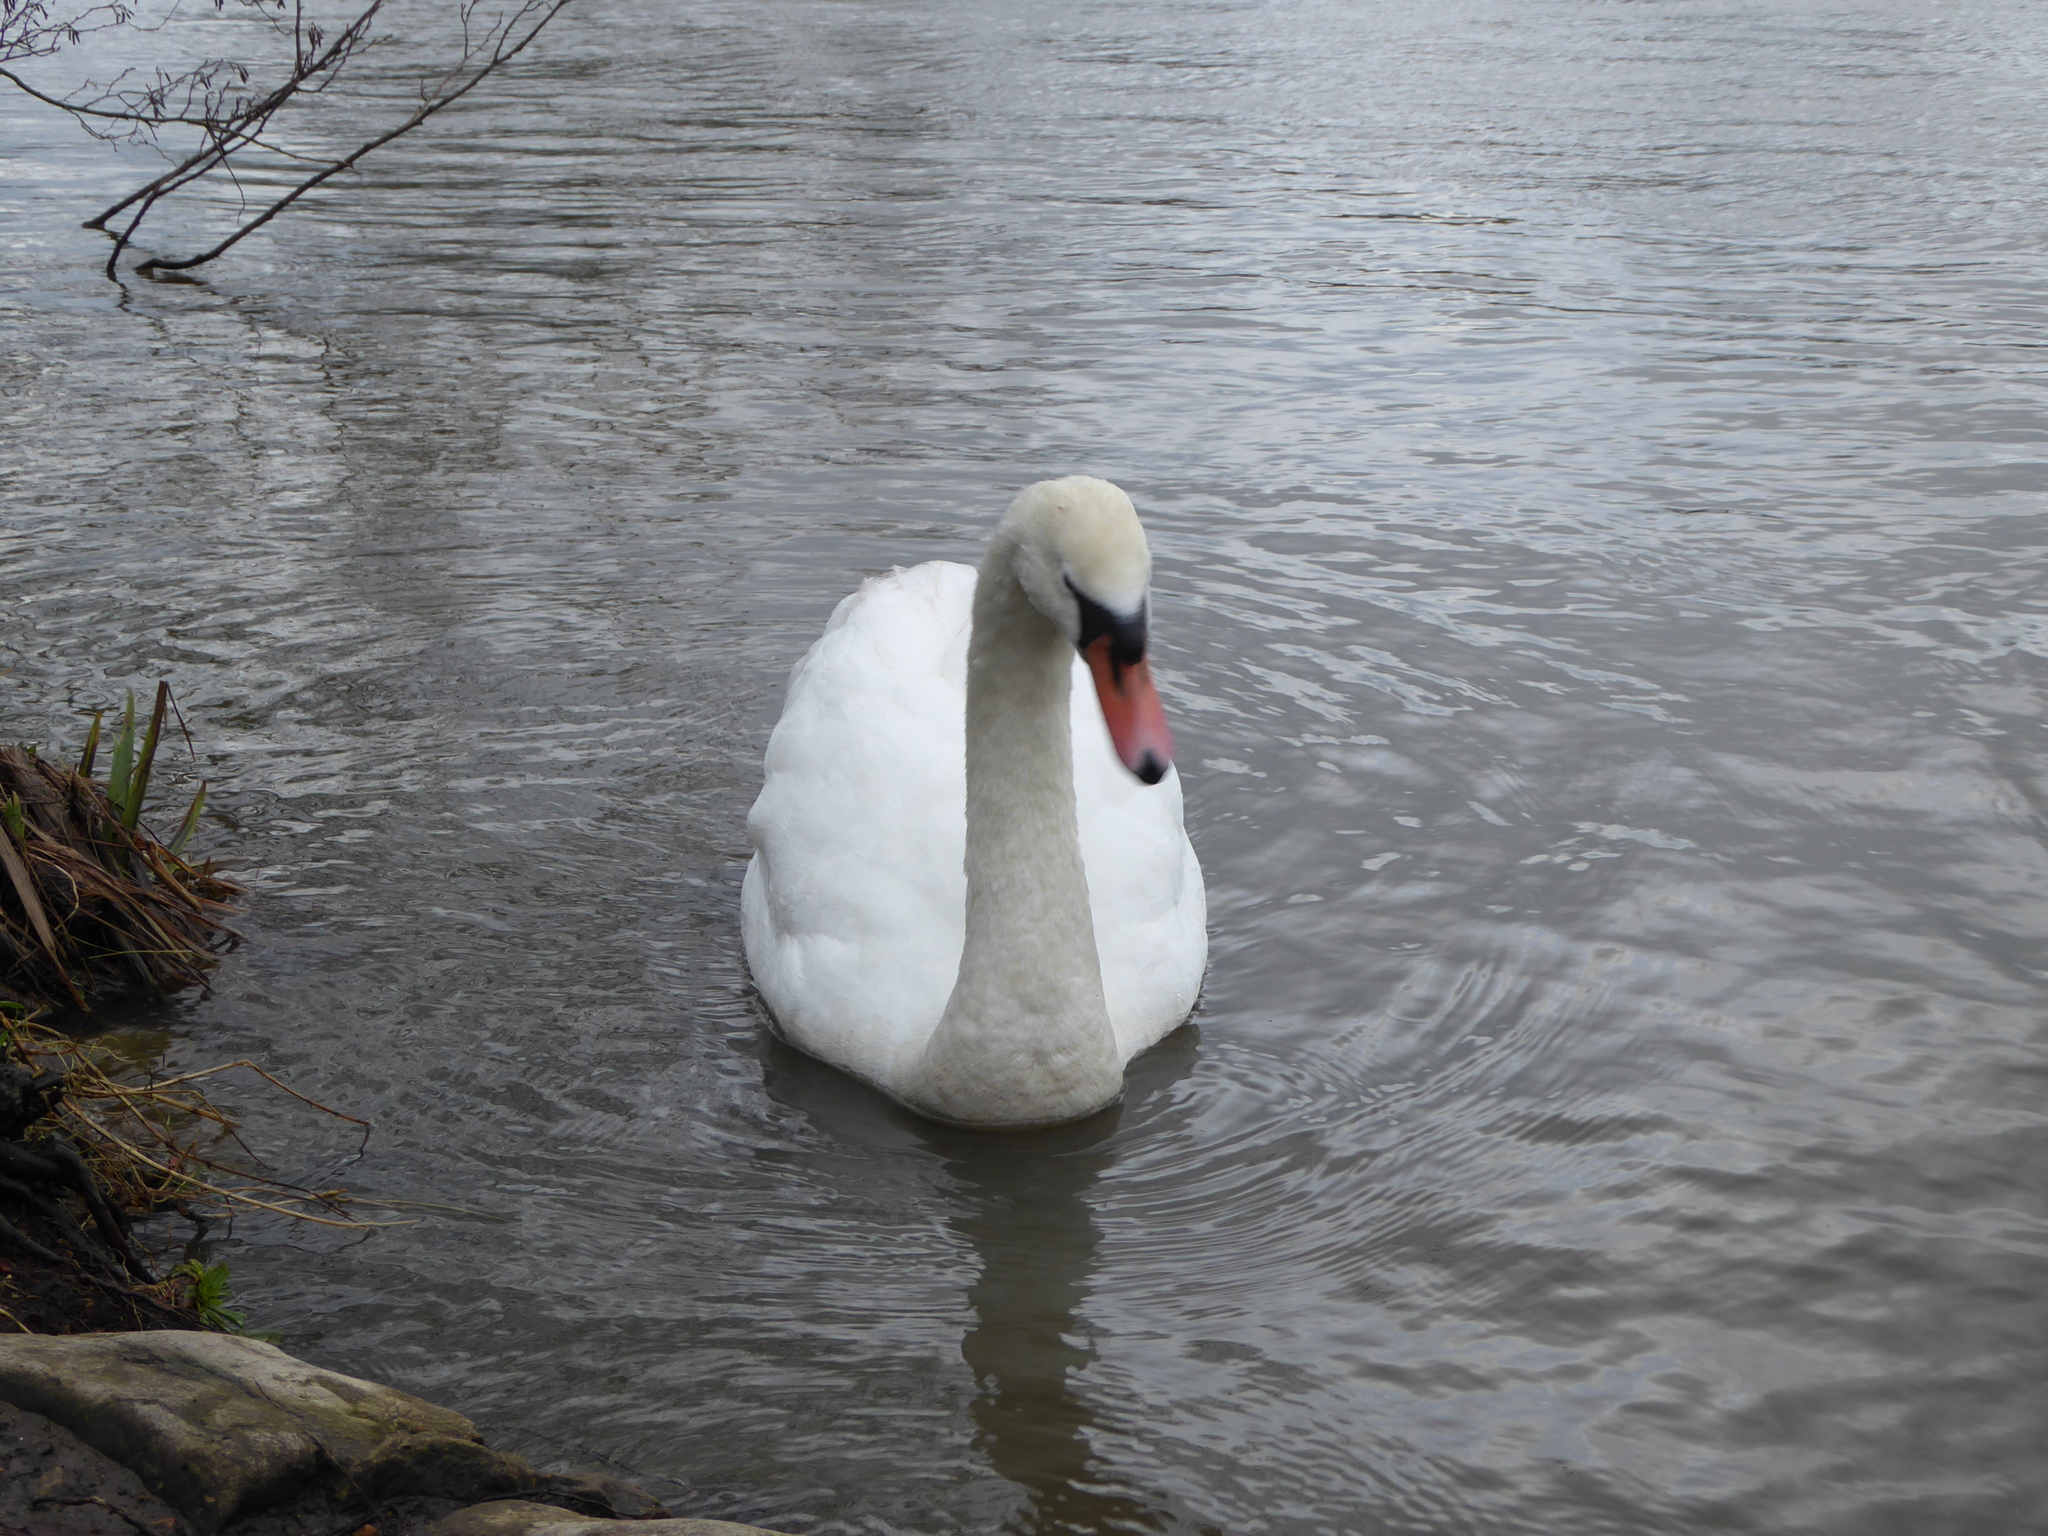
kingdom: Animalia
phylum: Chordata
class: Aves
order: Anseriformes
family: Anatidae
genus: Cygnus
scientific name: Cygnus olor
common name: Mute swan
